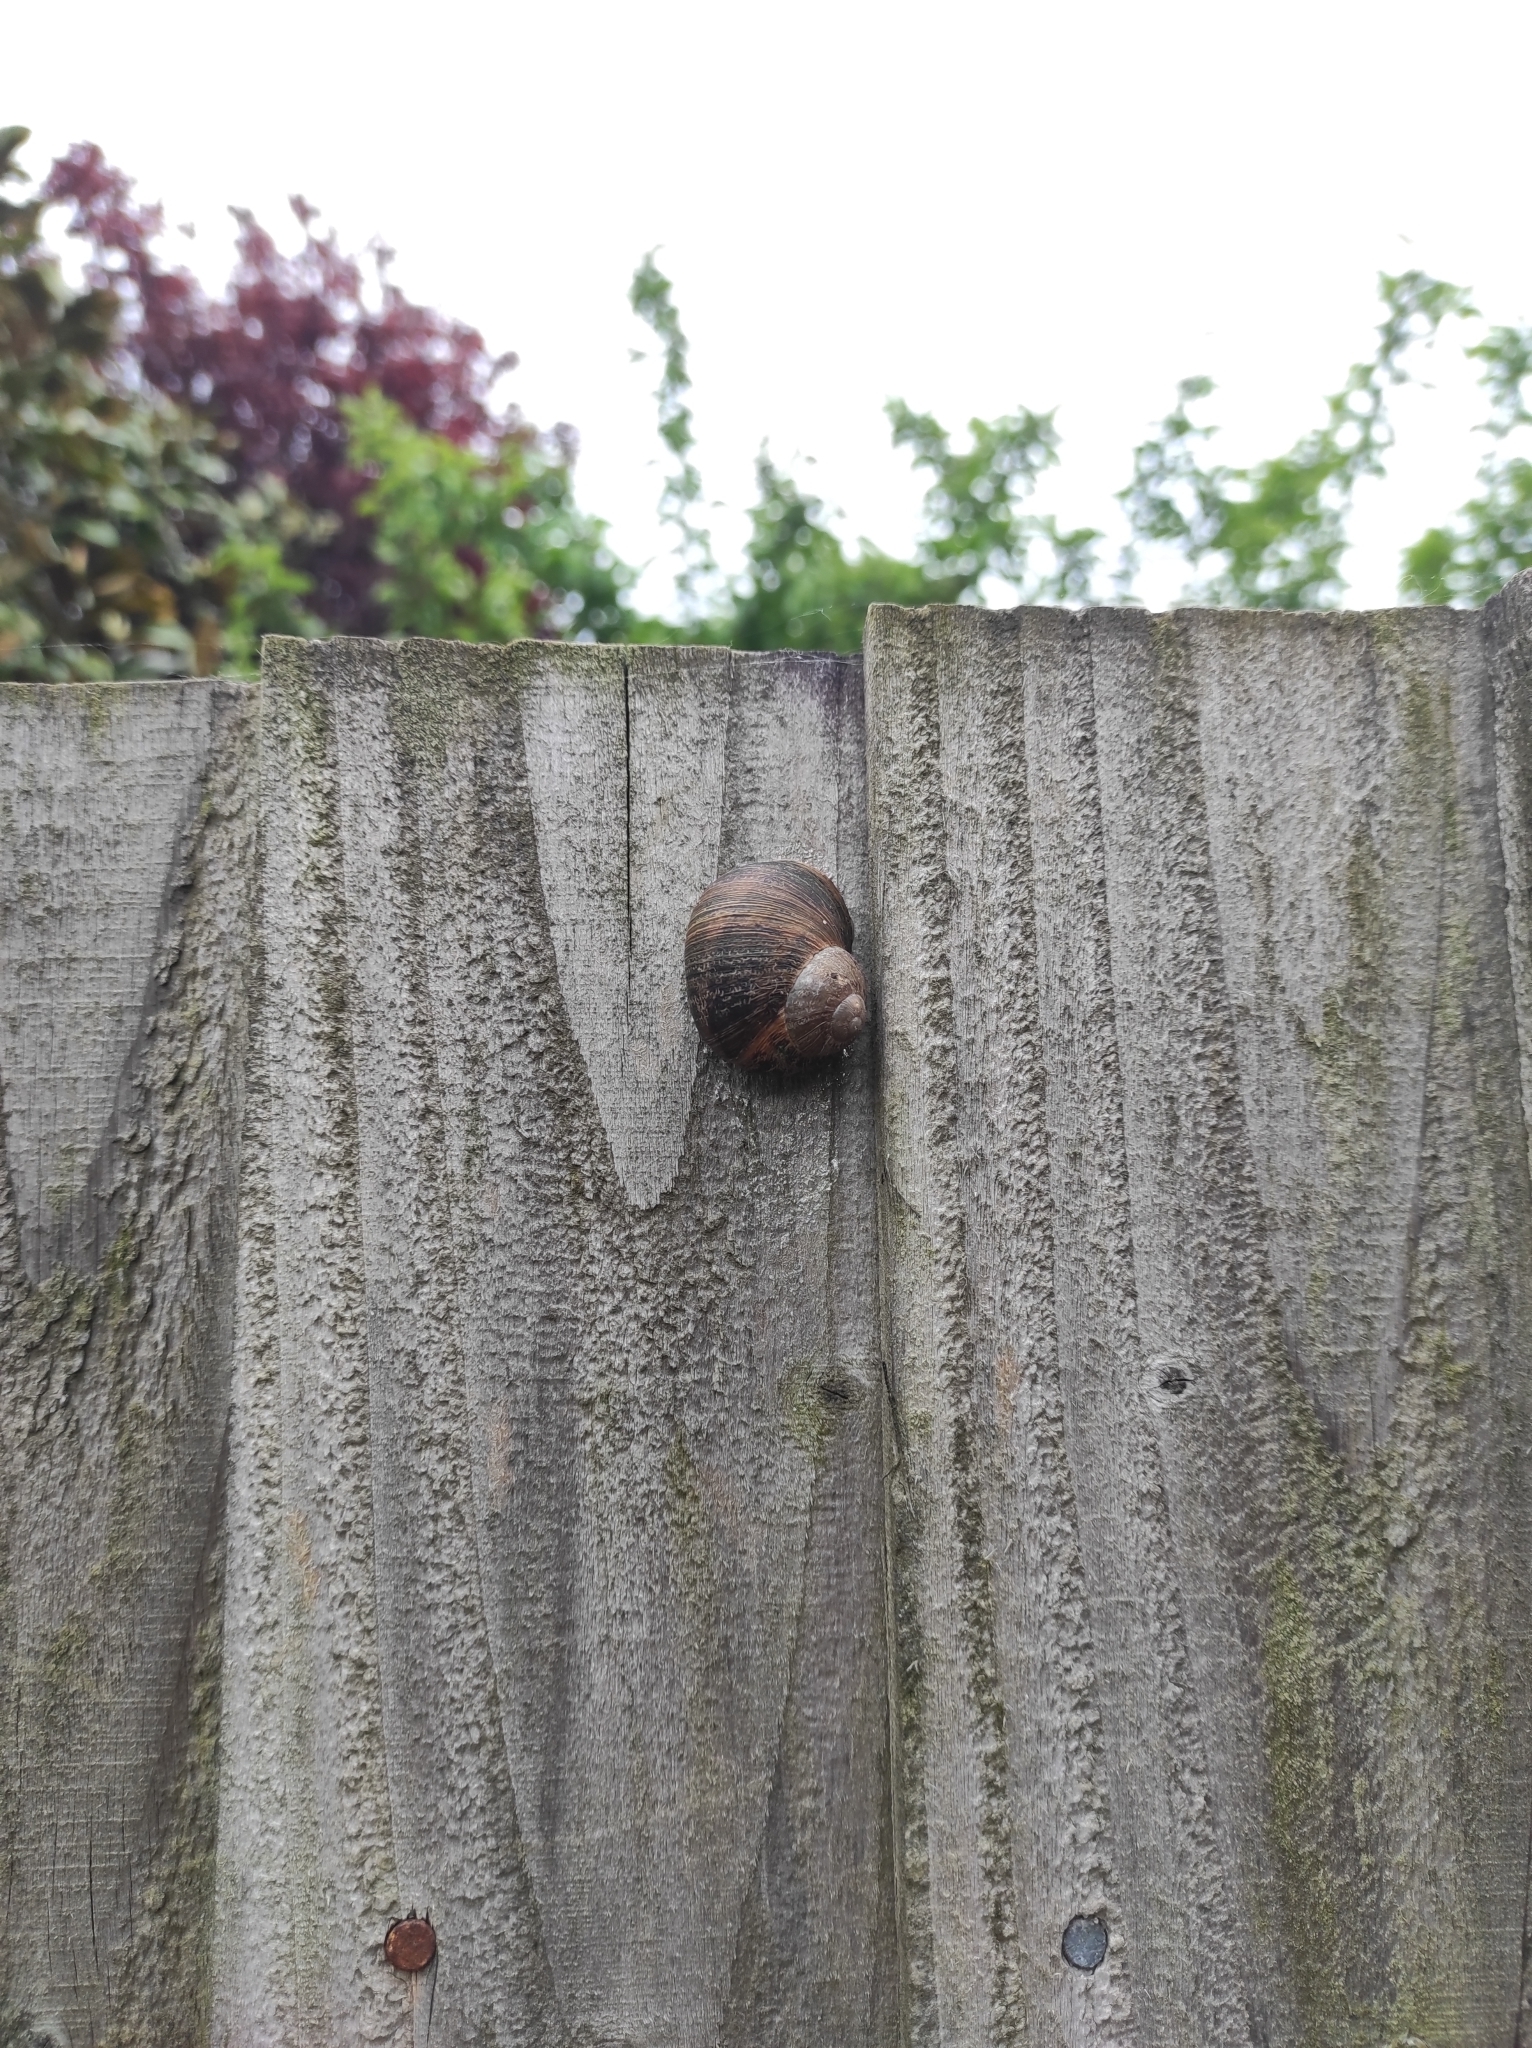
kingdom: Animalia
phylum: Mollusca
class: Gastropoda
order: Stylommatophora
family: Helicidae
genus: Cornu
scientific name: Cornu aspersum
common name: Brown garden snail
